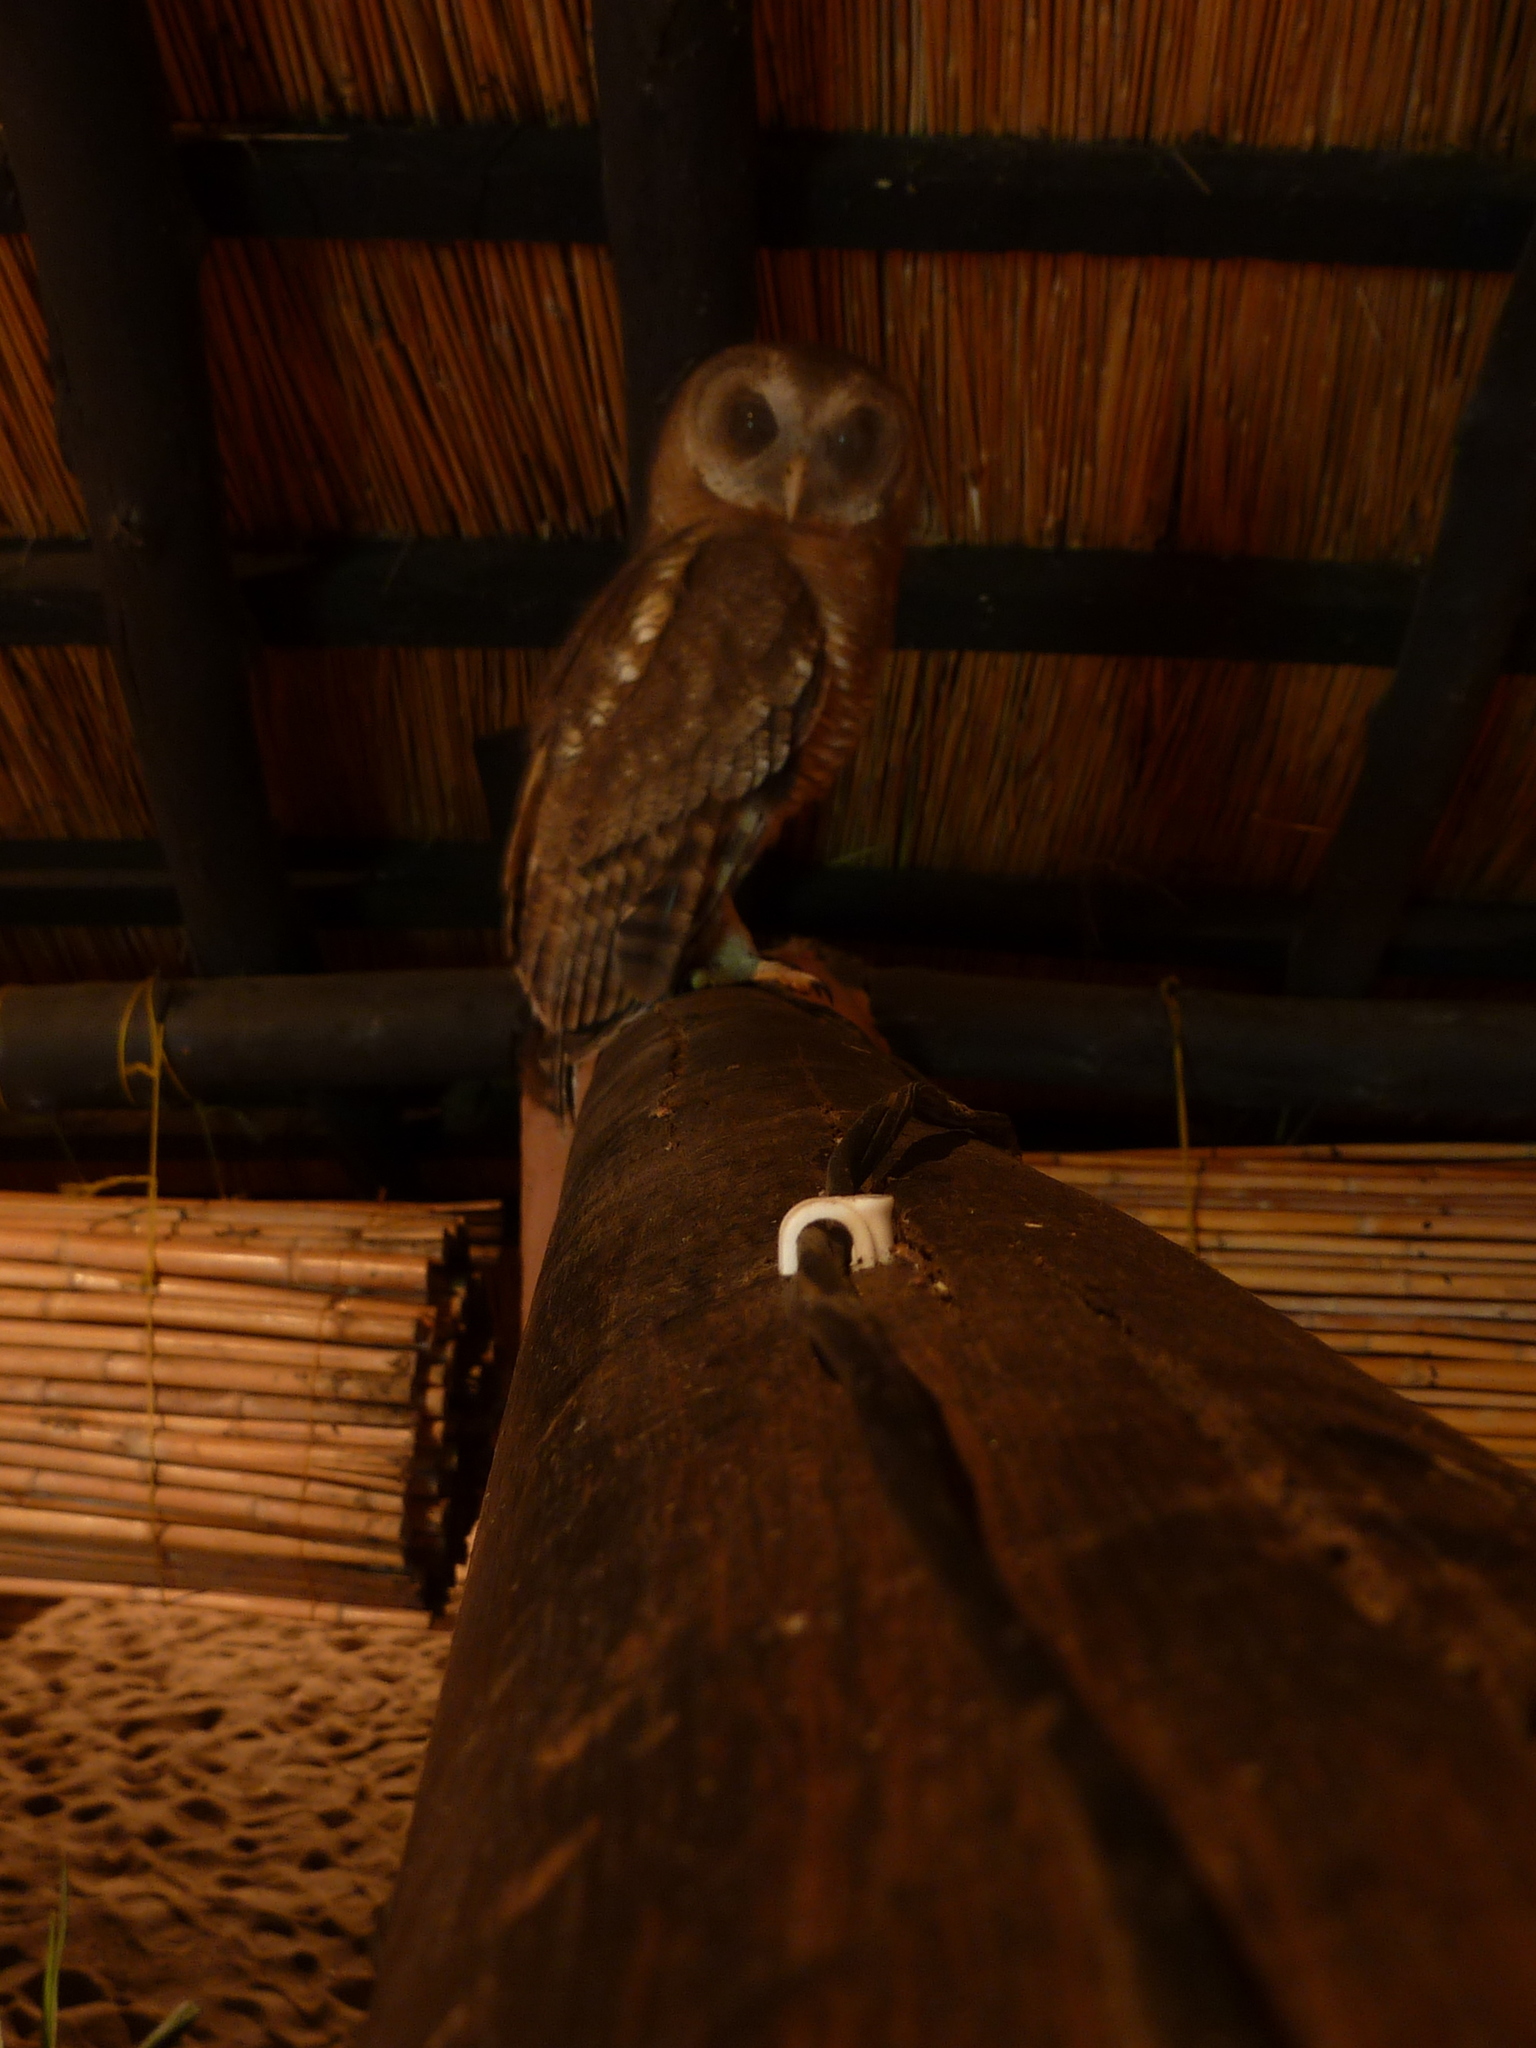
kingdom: Animalia
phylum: Chordata
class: Aves
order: Strigiformes
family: Strigidae
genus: Strix
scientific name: Strix woodfordii
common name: African wood owl
